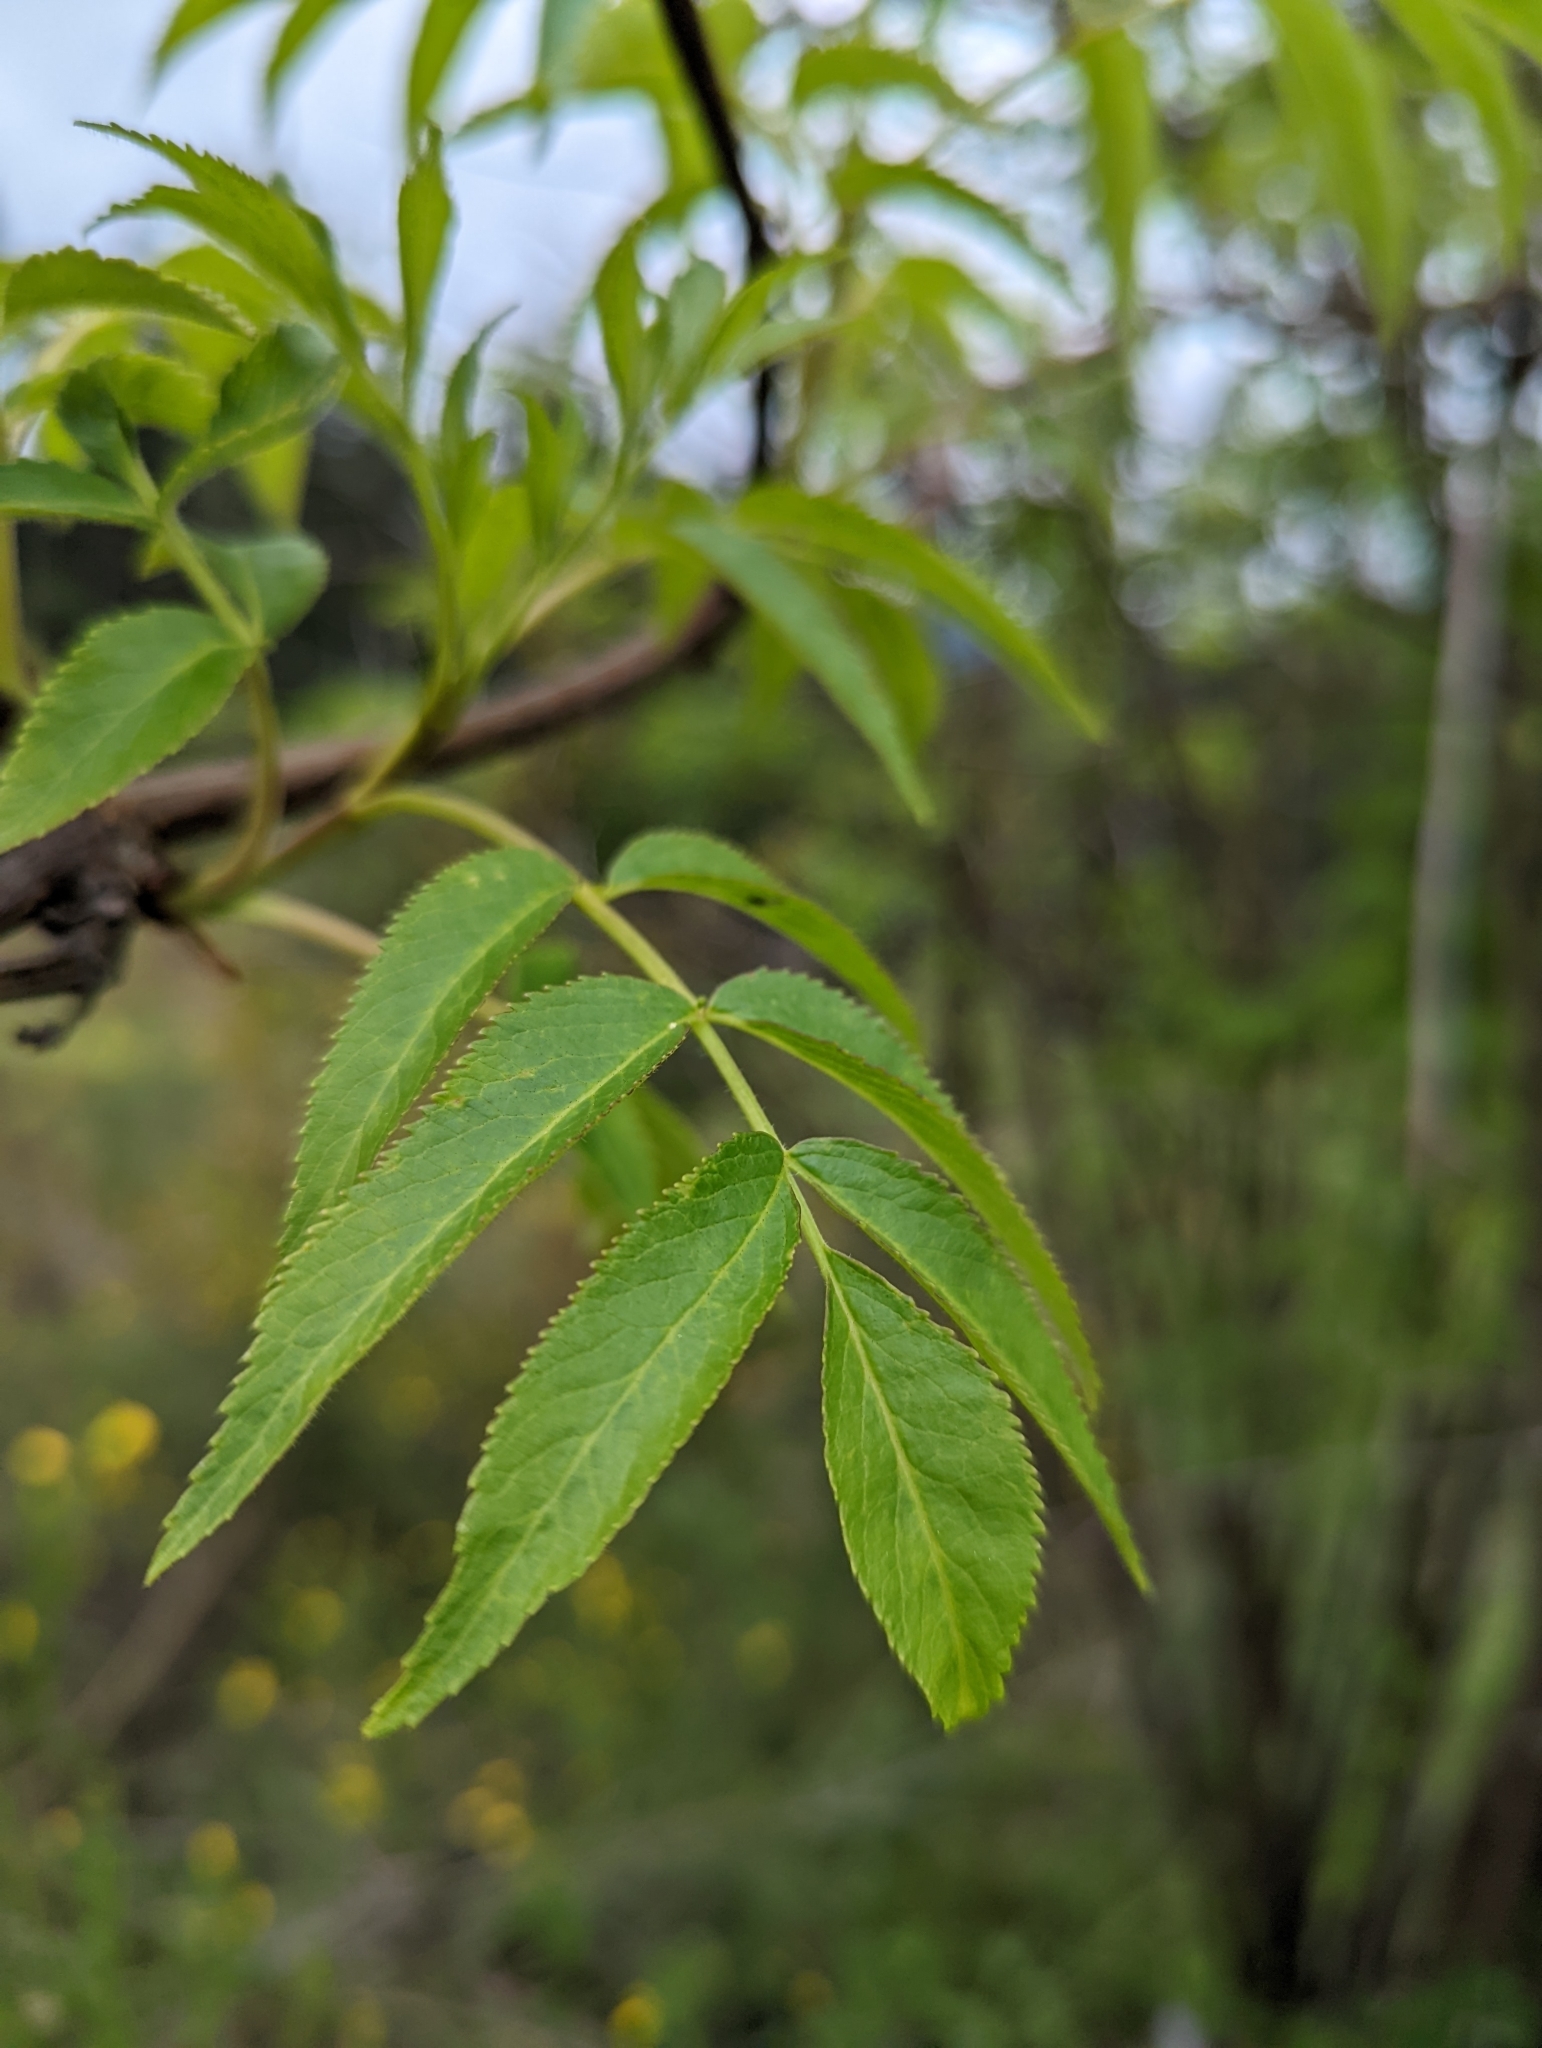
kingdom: Plantae
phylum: Tracheophyta
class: Magnoliopsida
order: Dipsacales
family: Viburnaceae
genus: Sambucus
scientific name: Sambucus cerulea
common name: Blue elder
